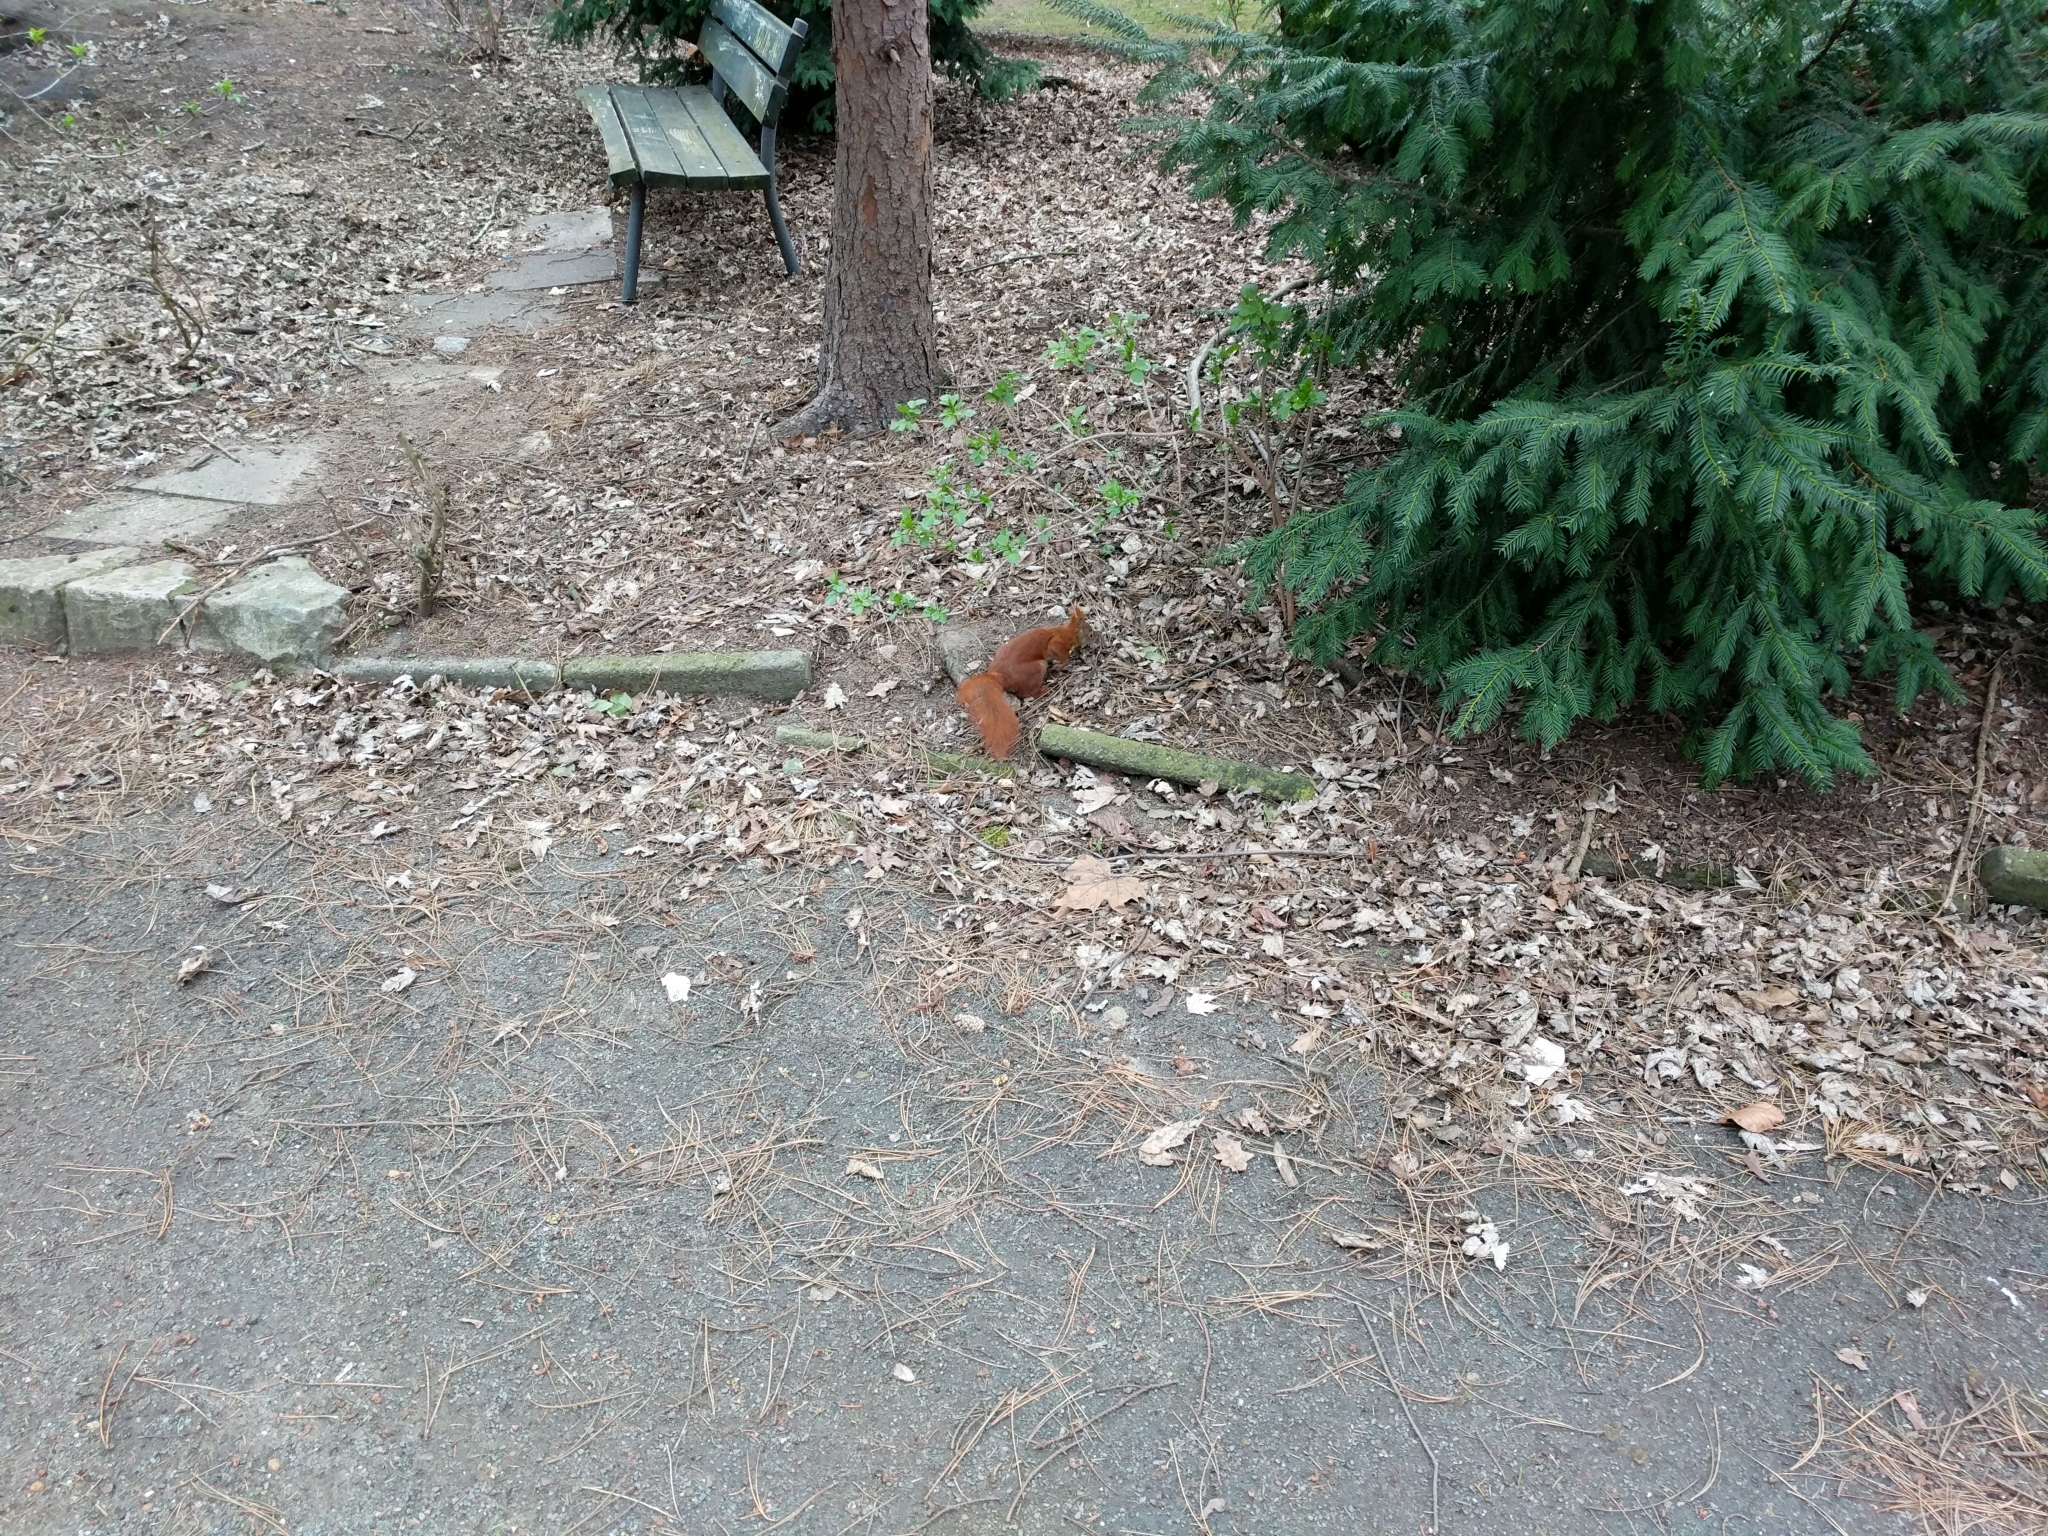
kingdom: Animalia
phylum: Chordata
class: Mammalia
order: Rodentia
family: Sciuridae
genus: Sciurus
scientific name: Sciurus vulgaris
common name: Eurasian red squirrel
